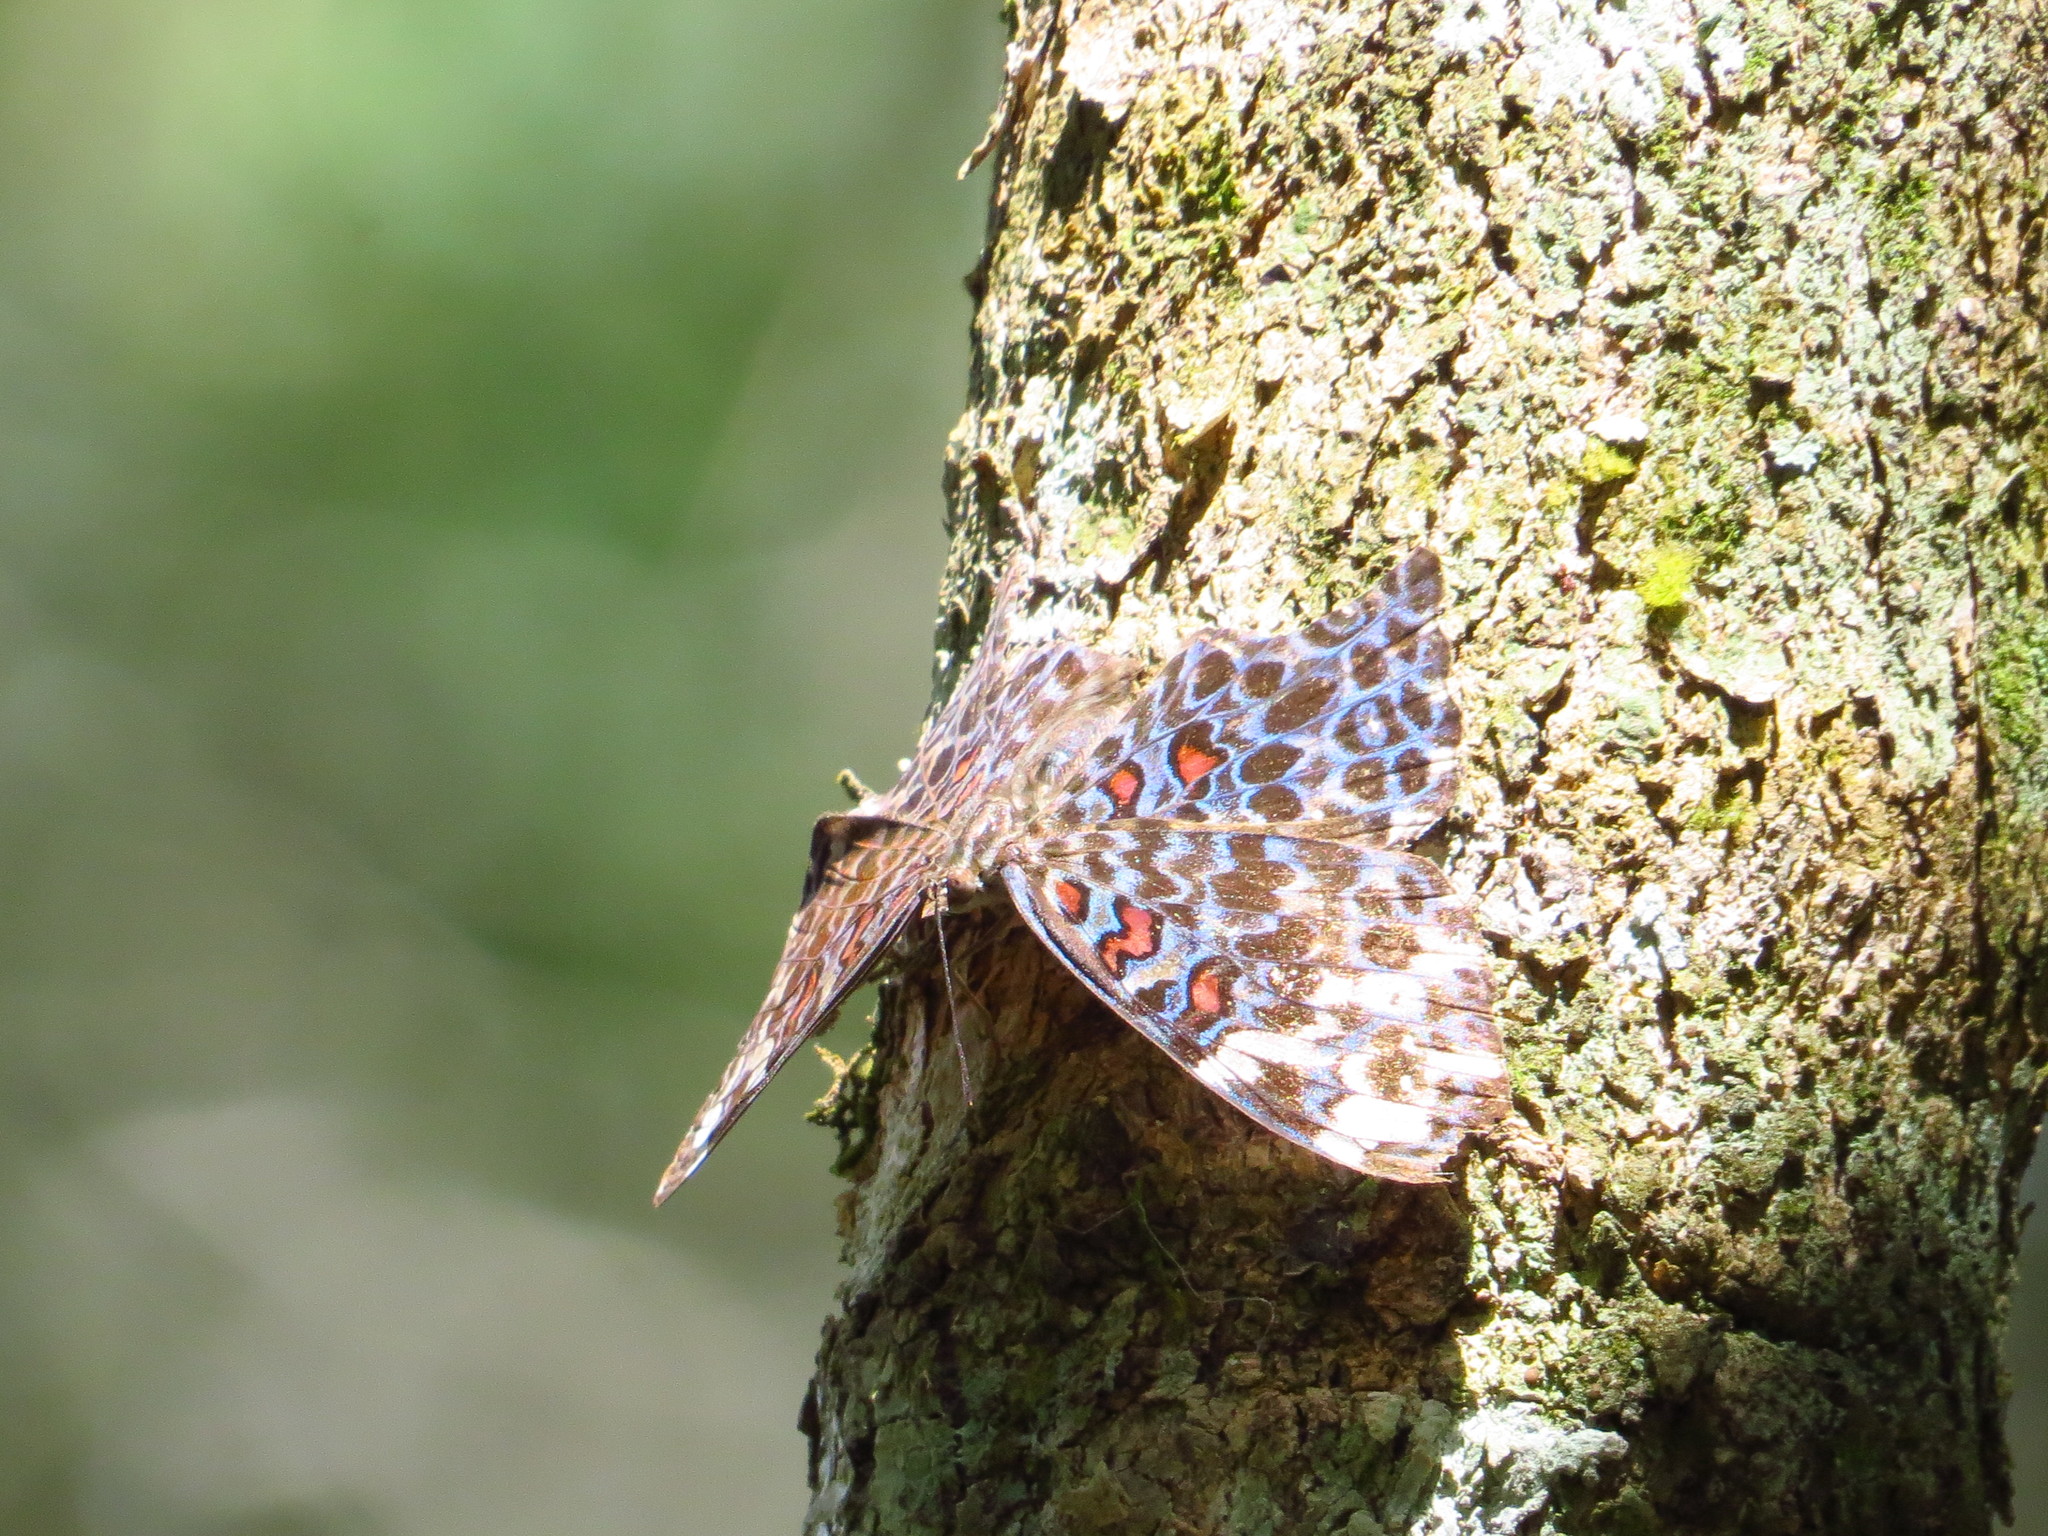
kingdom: Animalia
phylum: Arthropoda
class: Insecta
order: Lepidoptera
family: Nymphalidae
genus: Hamadryas
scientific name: Hamadryas chloe
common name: Amazon cracker
